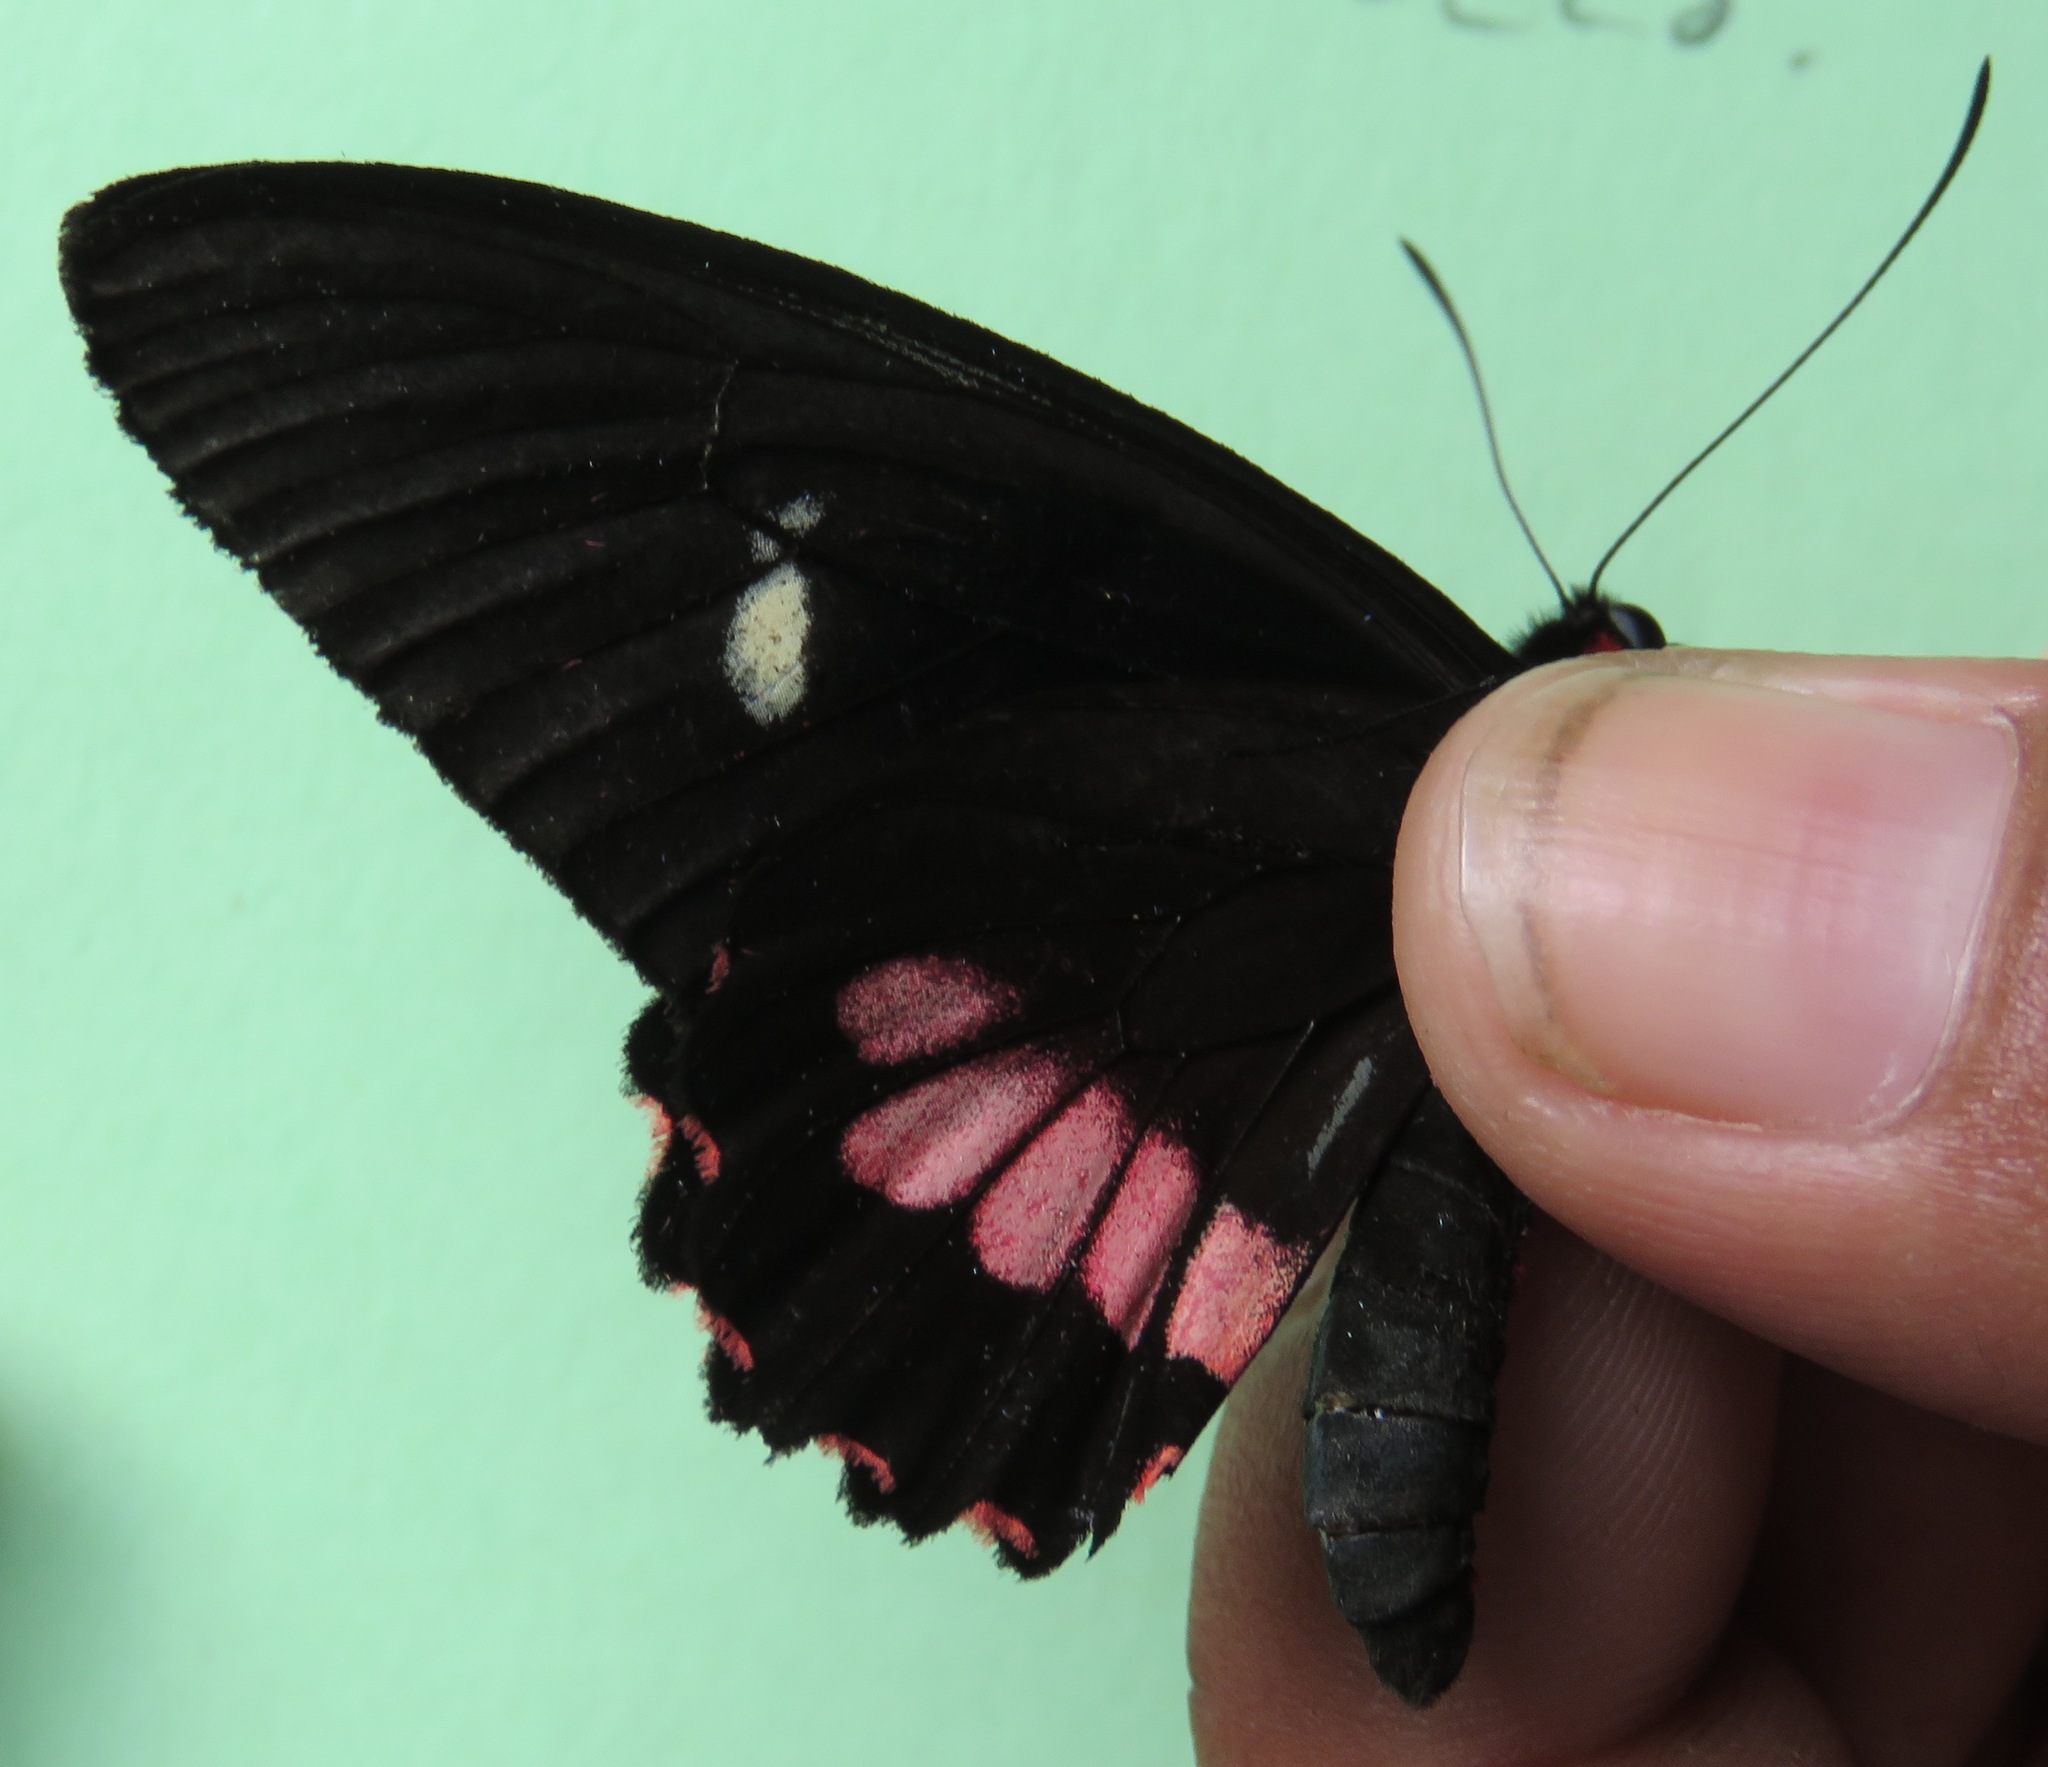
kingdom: Animalia
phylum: Arthropoda
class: Insecta
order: Lepidoptera
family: Papilionidae
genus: Parides
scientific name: Parides eurimedes
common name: True cattleheart
